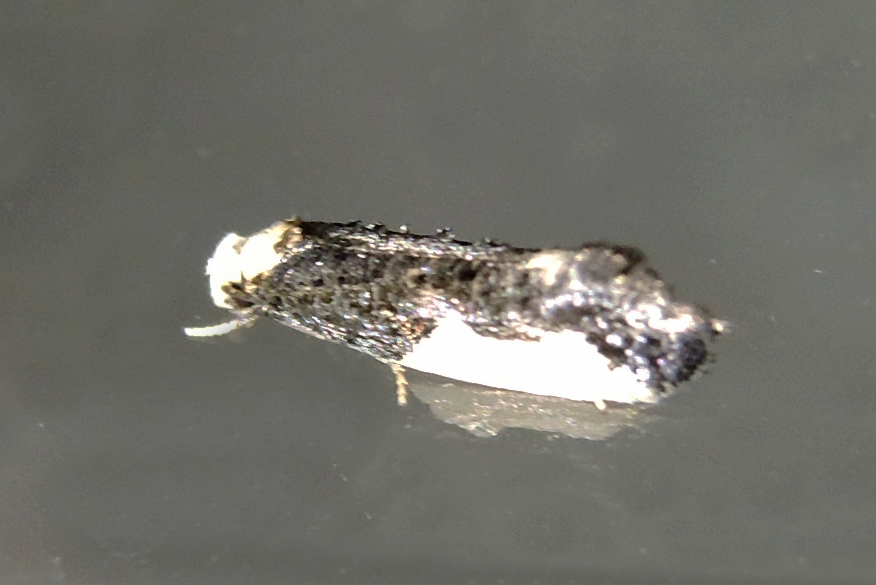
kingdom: Animalia
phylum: Arthropoda
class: Insecta
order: Lepidoptera
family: Tineidae
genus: Monopis
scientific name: Monopis monachella
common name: Moth
